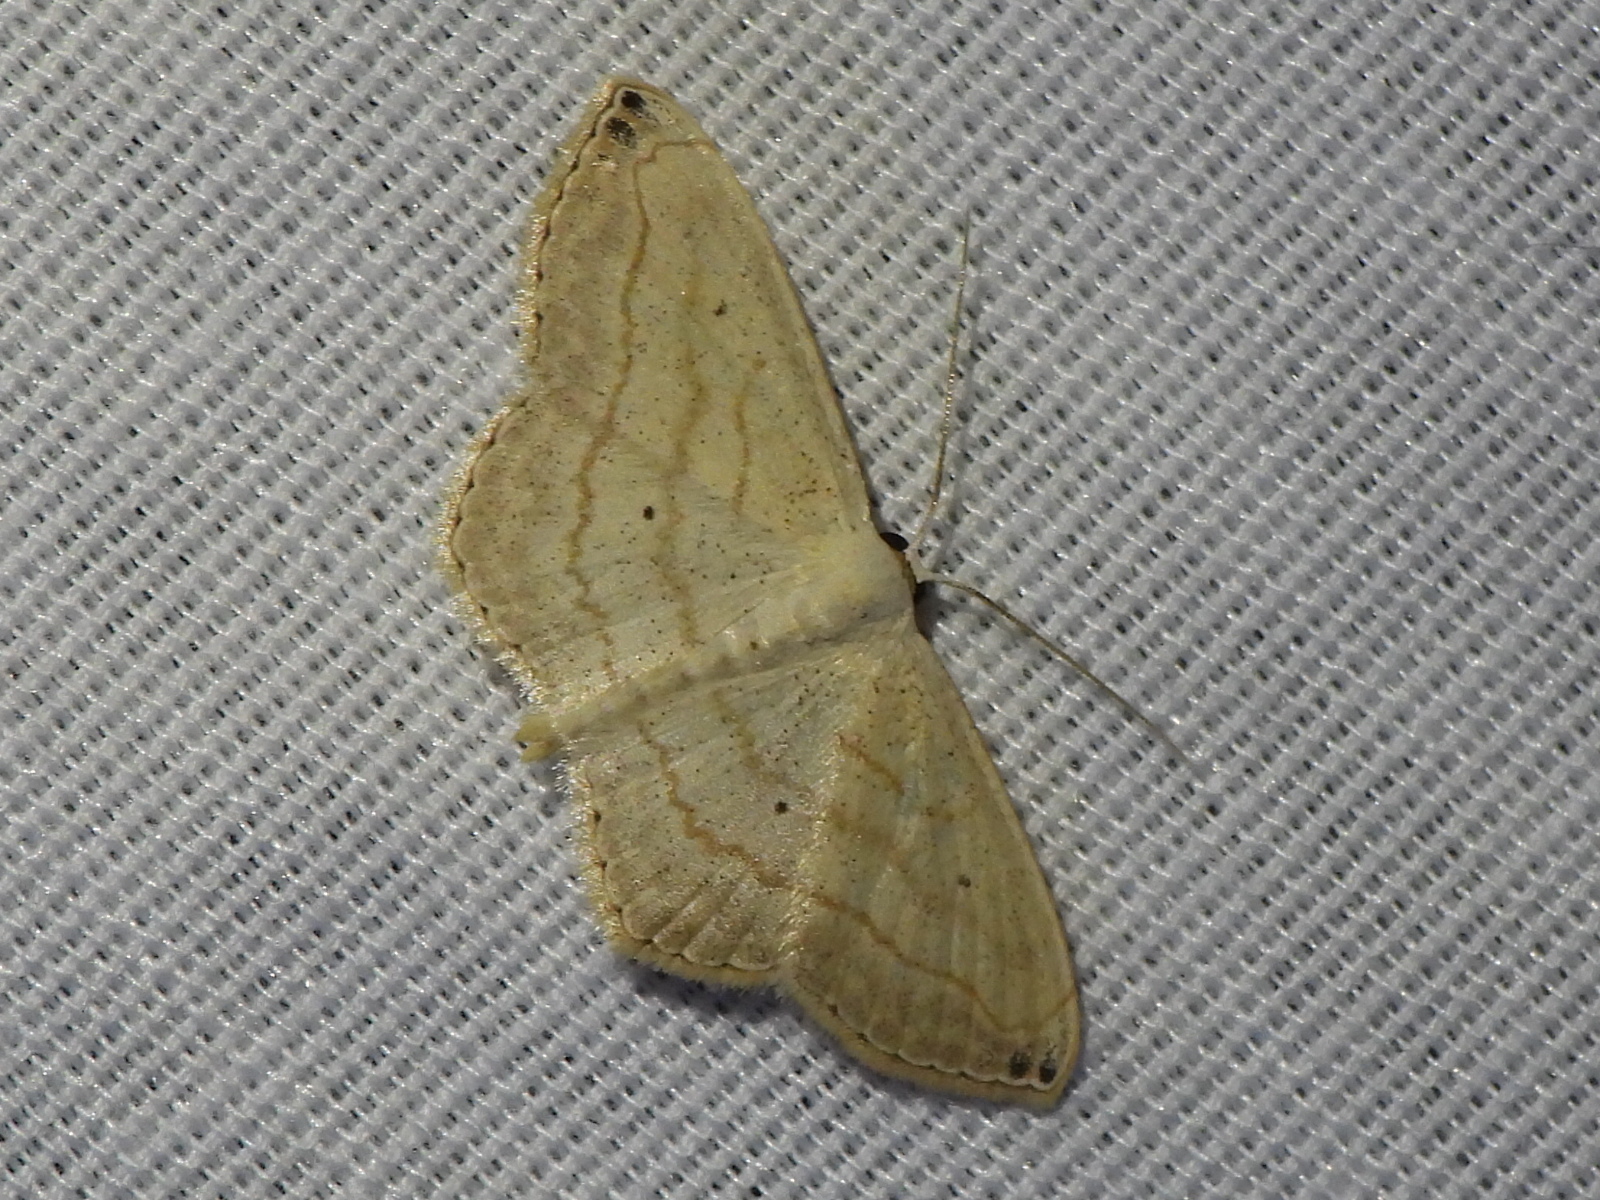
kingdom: Animalia
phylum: Arthropoda
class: Insecta
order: Lepidoptera
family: Geometridae
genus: Scopula
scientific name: Scopula umbilicata
